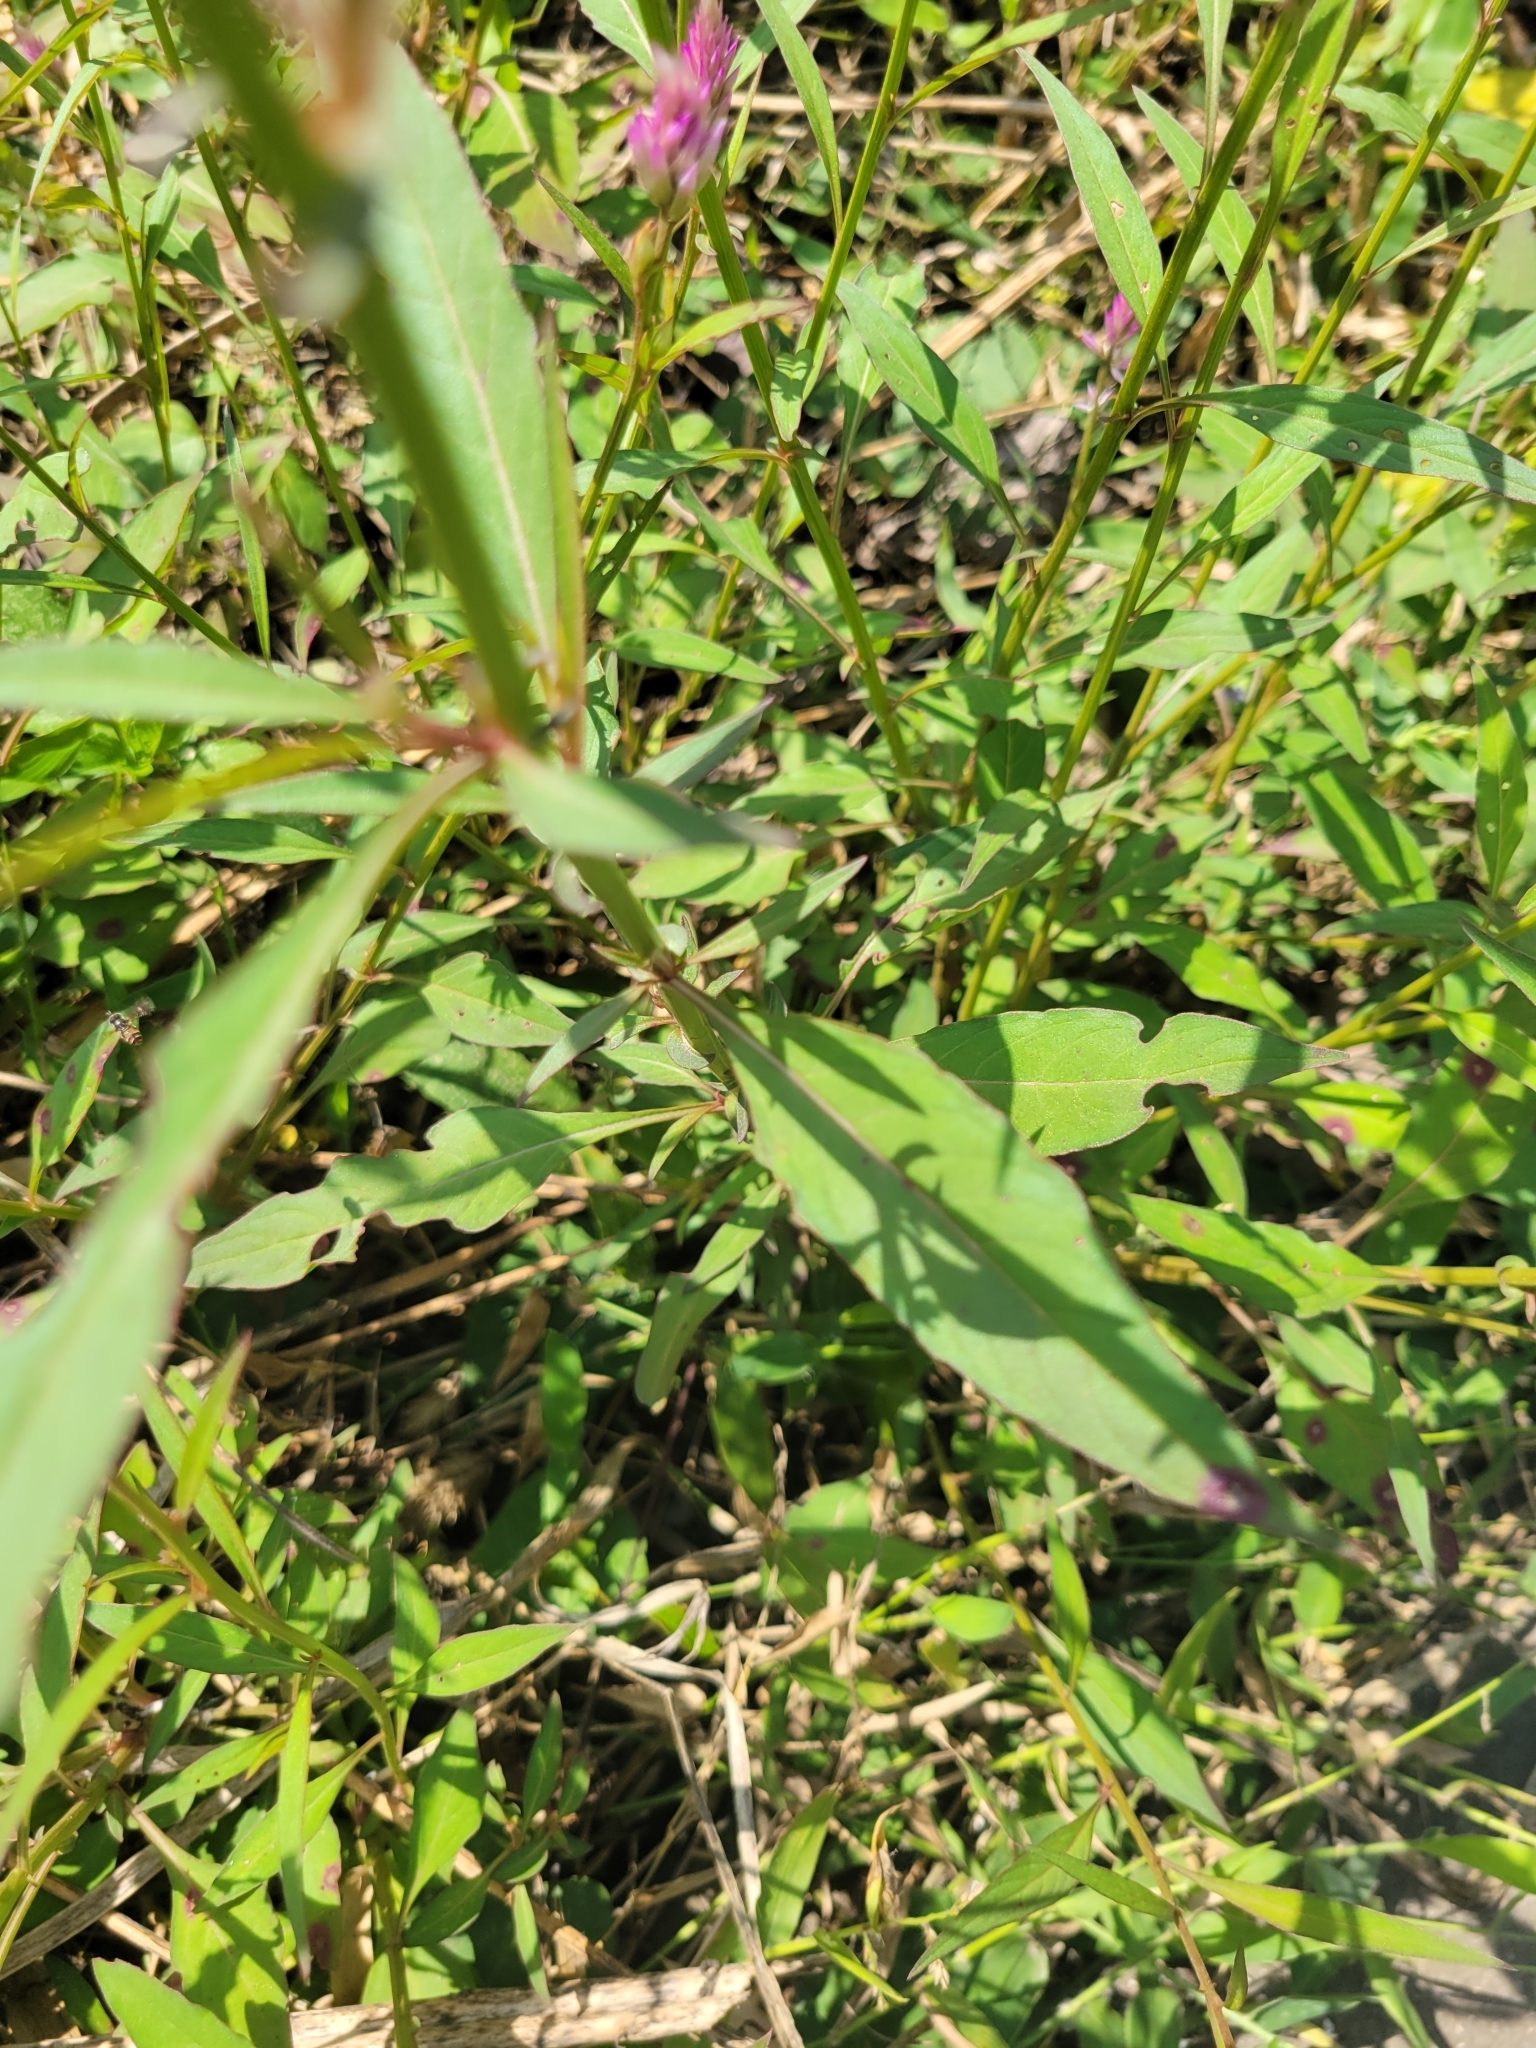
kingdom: Plantae
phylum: Tracheophyta
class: Magnoliopsida
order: Caryophyllales
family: Amaranthaceae
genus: Celosia
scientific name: Celosia argentea
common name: Feather cockscomb
